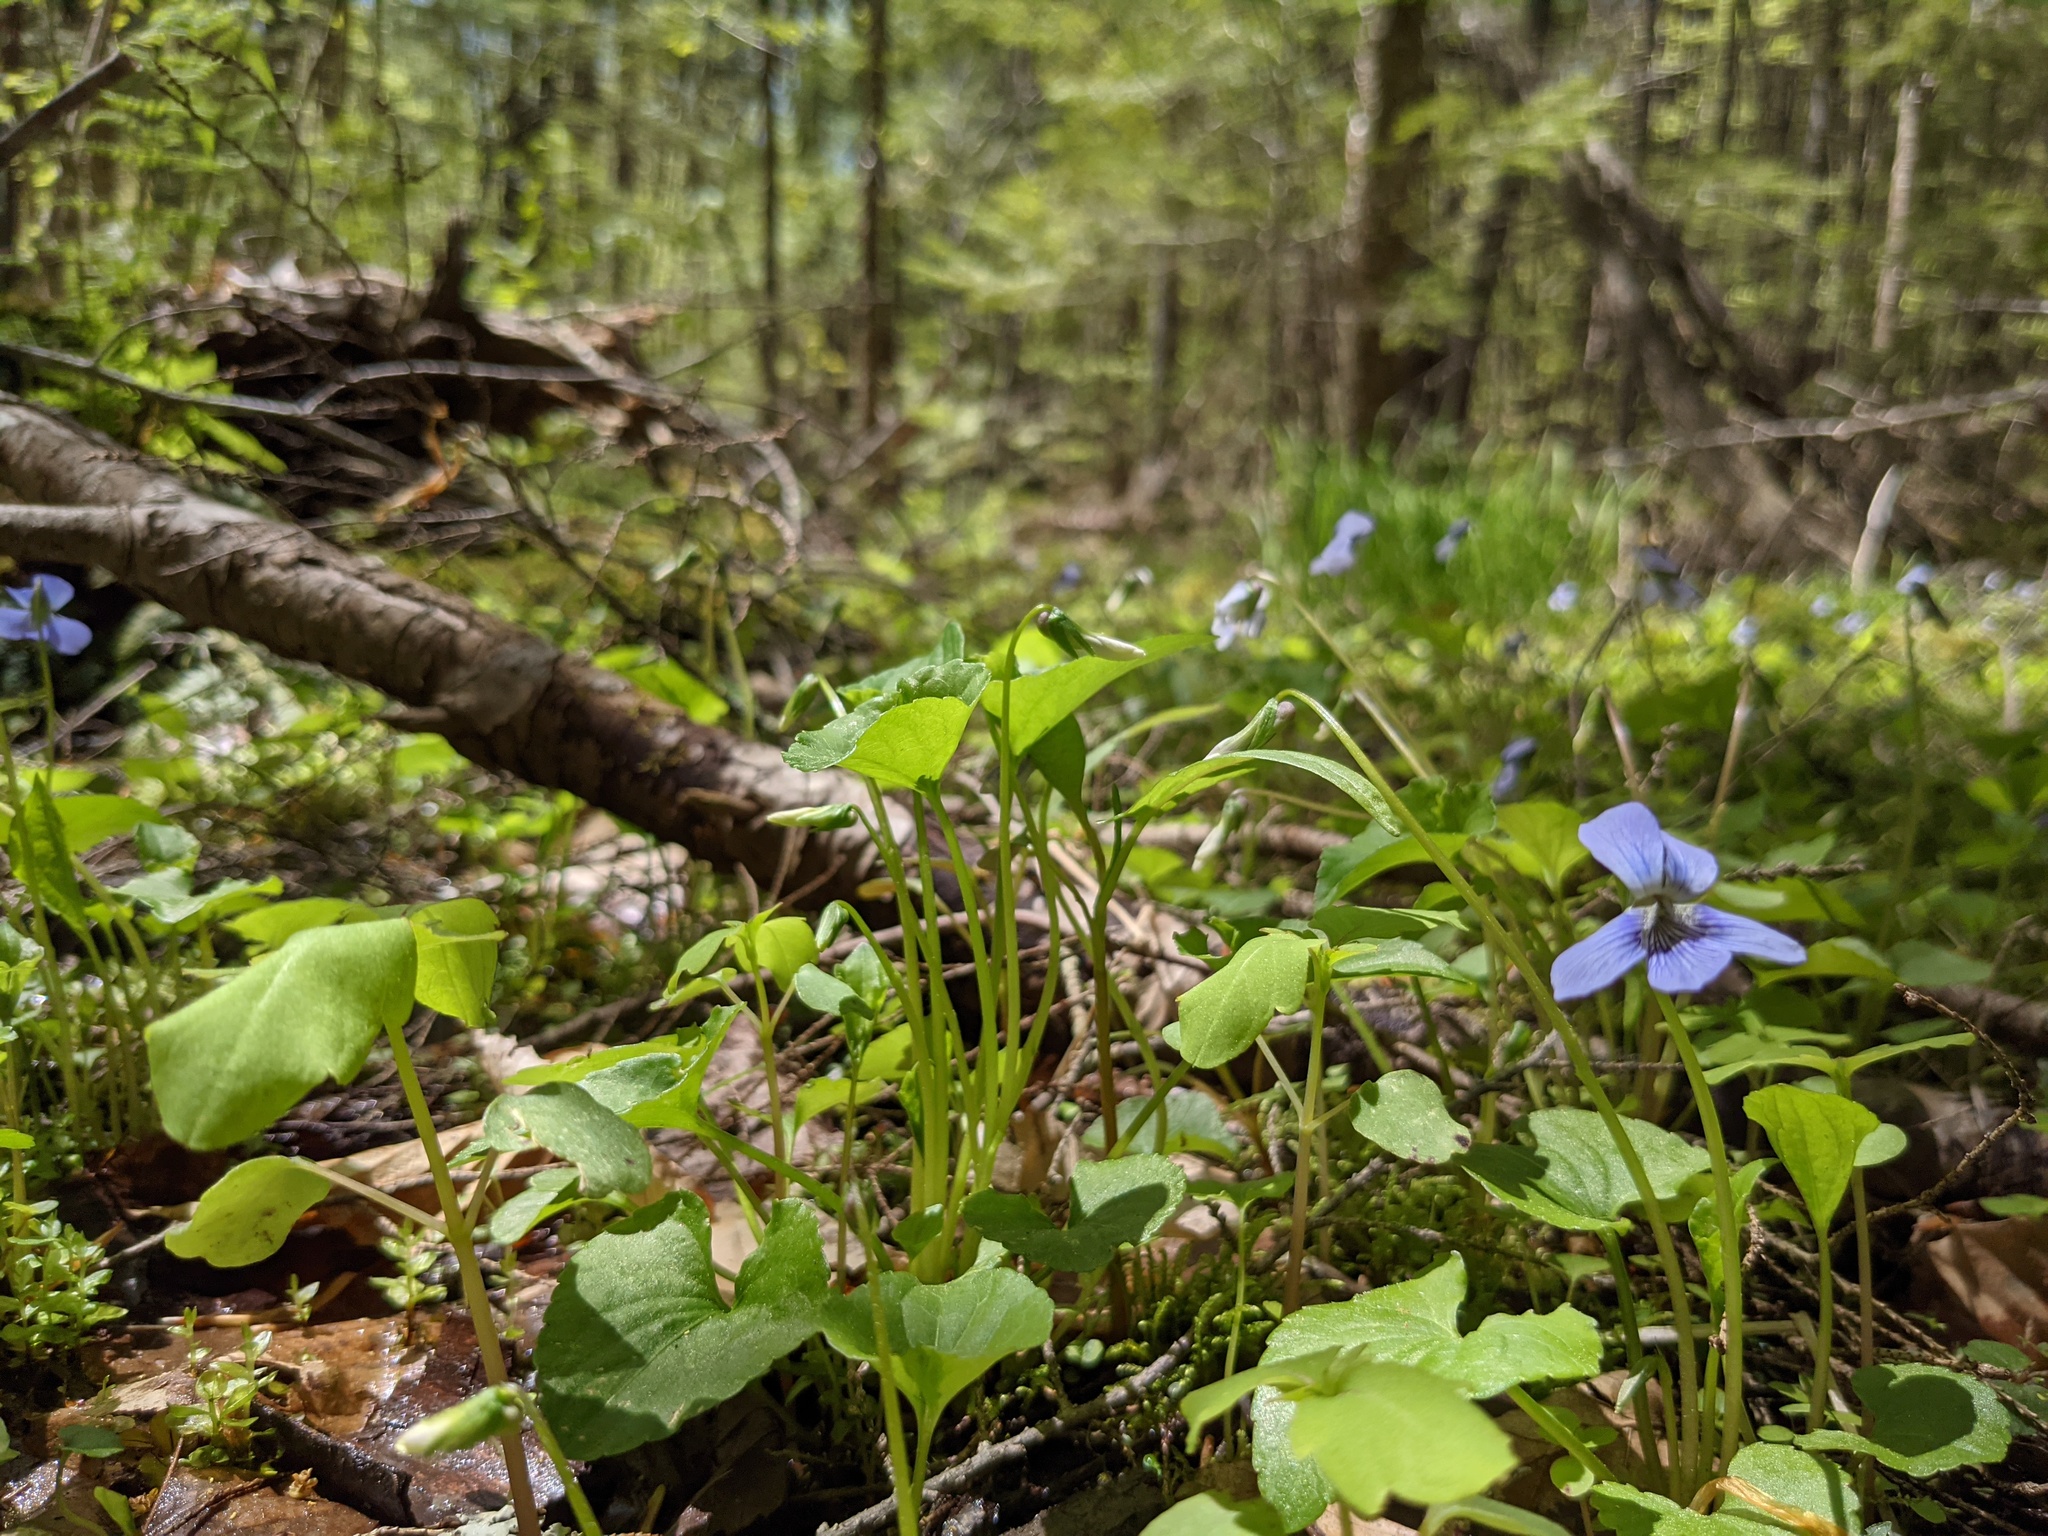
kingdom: Plantae
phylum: Tracheophyta
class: Magnoliopsida
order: Malpighiales
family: Violaceae
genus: Viola
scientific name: Viola cucullata
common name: Marsh blue violet
